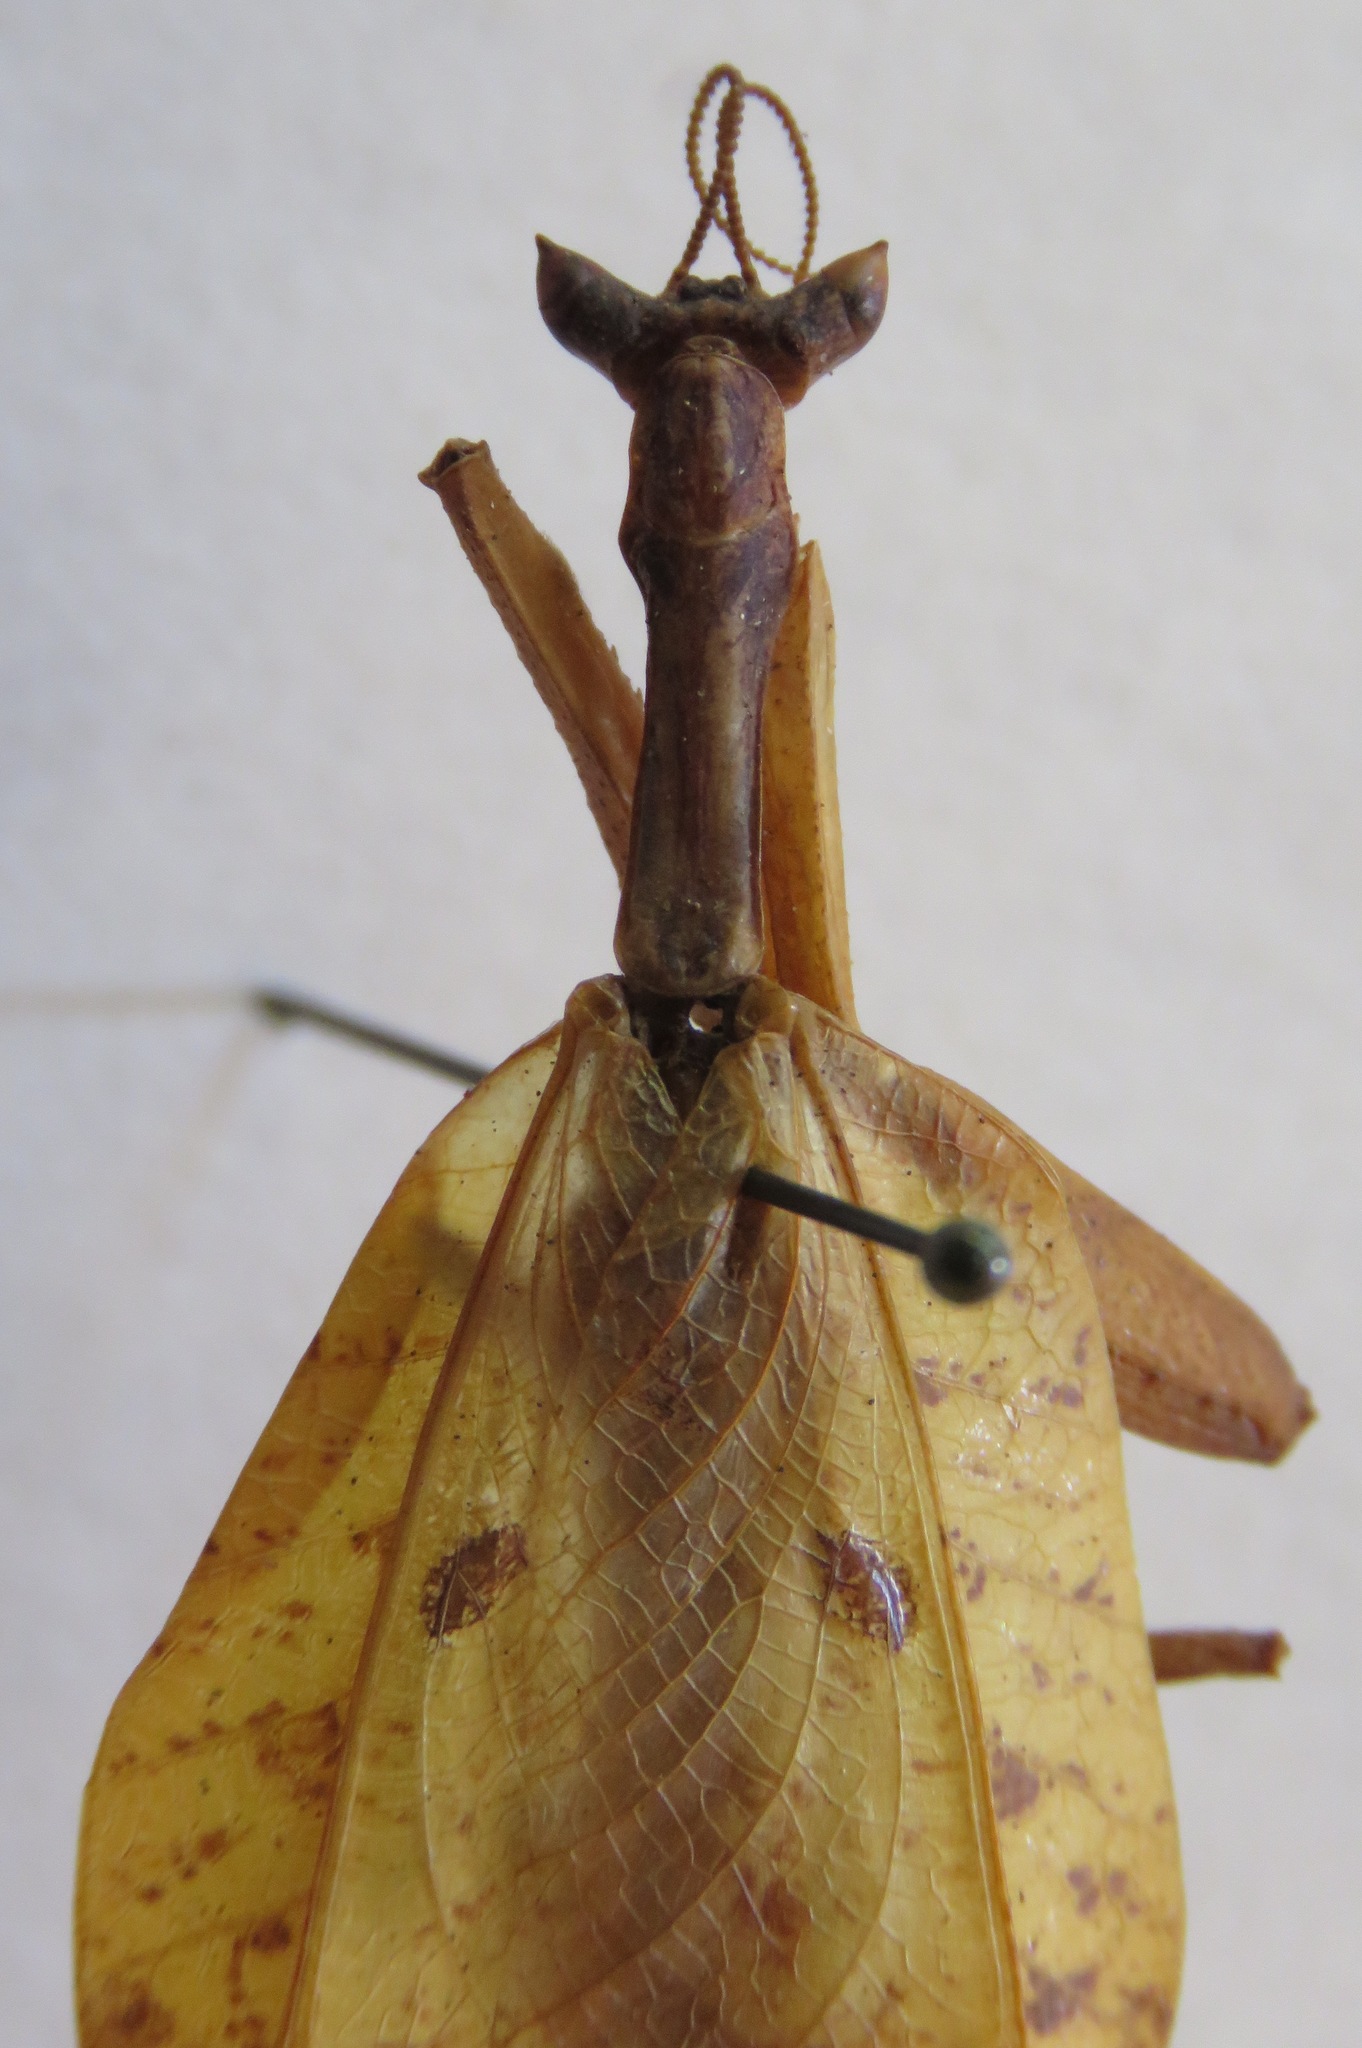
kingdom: Animalia
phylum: Arthropoda
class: Insecta
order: Mantodea
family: Acanthopidae
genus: Metilia
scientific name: Metilia brunnerii
